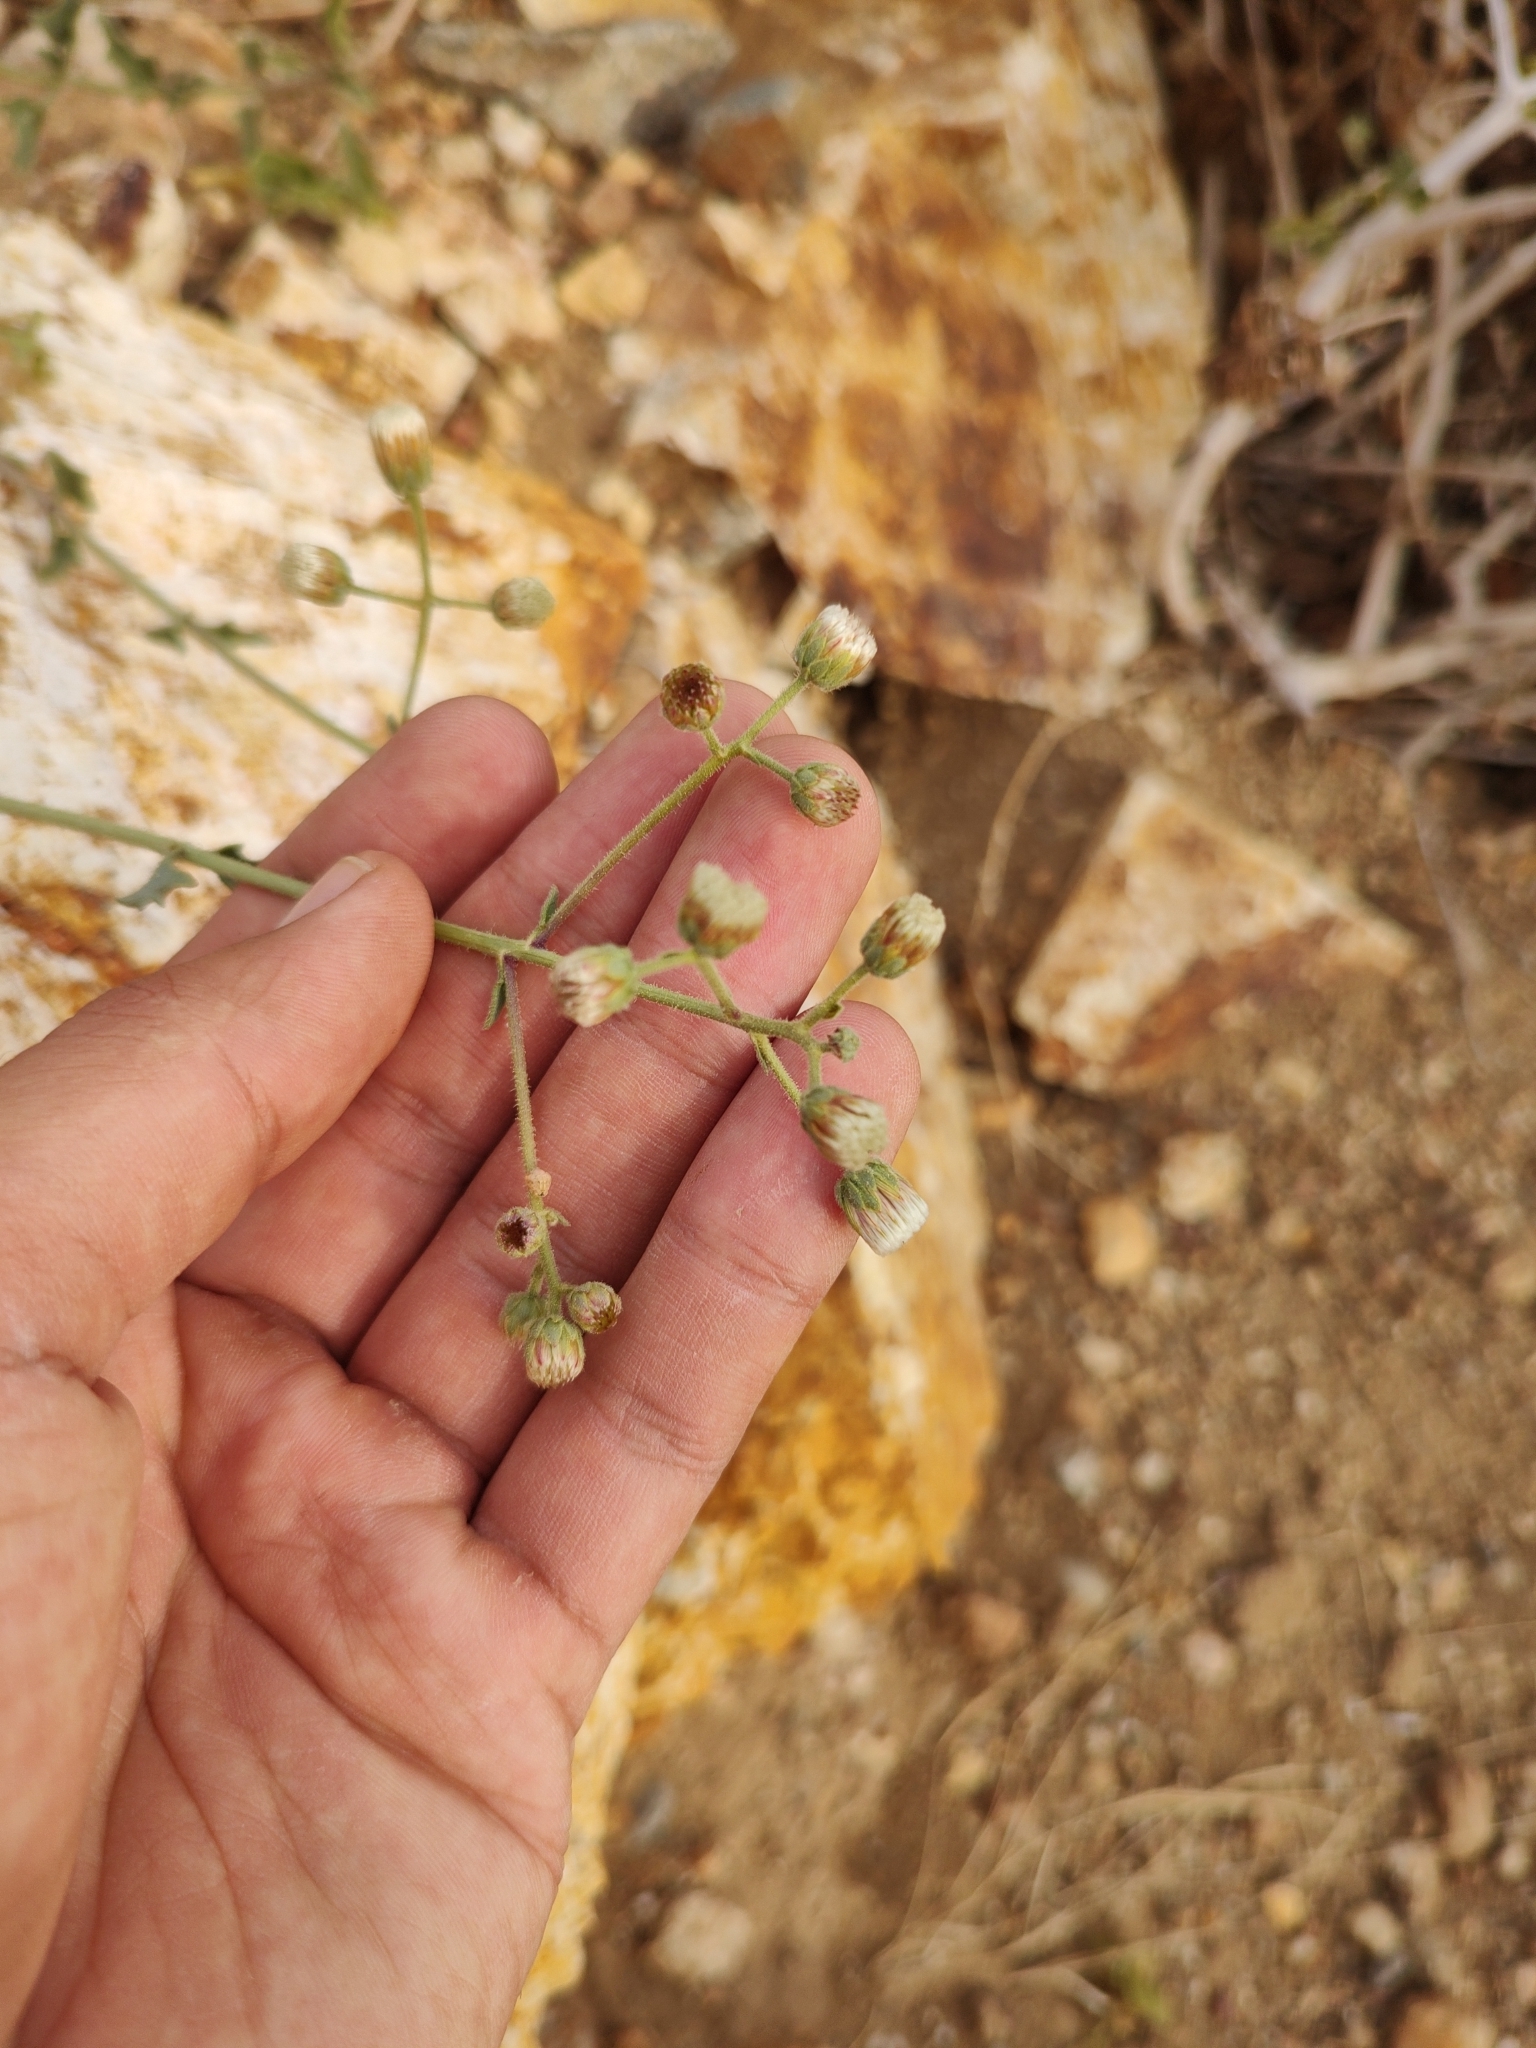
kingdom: Plantae
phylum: Tracheophyta
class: Magnoliopsida
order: Asterales
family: Asteraceae
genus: Bebbia
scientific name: Bebbia atriplicifolia
